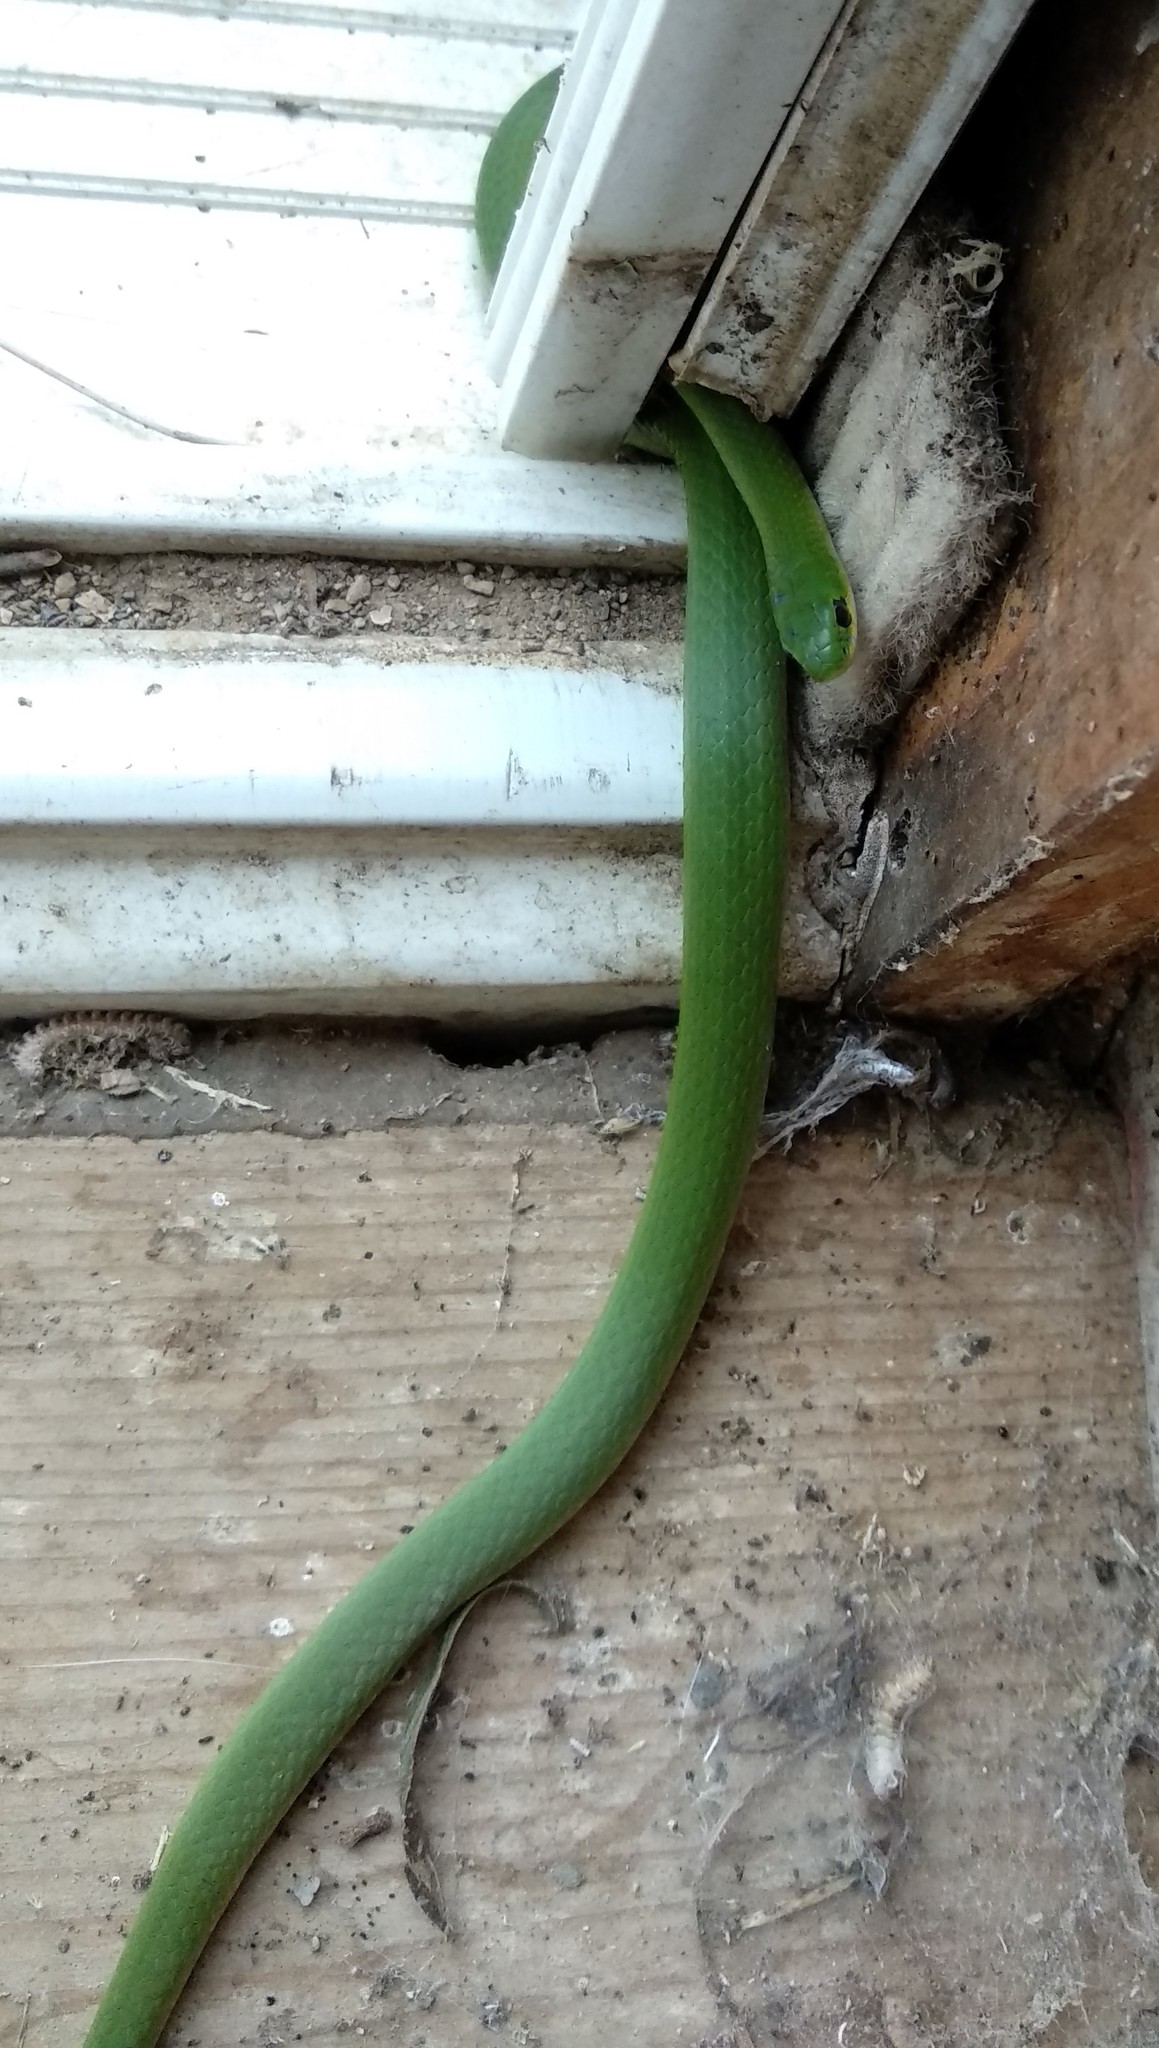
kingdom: Animalia
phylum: Chordata
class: Squamata
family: Colubridae
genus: Opheodrys
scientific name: Opheodrys vernalis
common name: Smooth green snake
